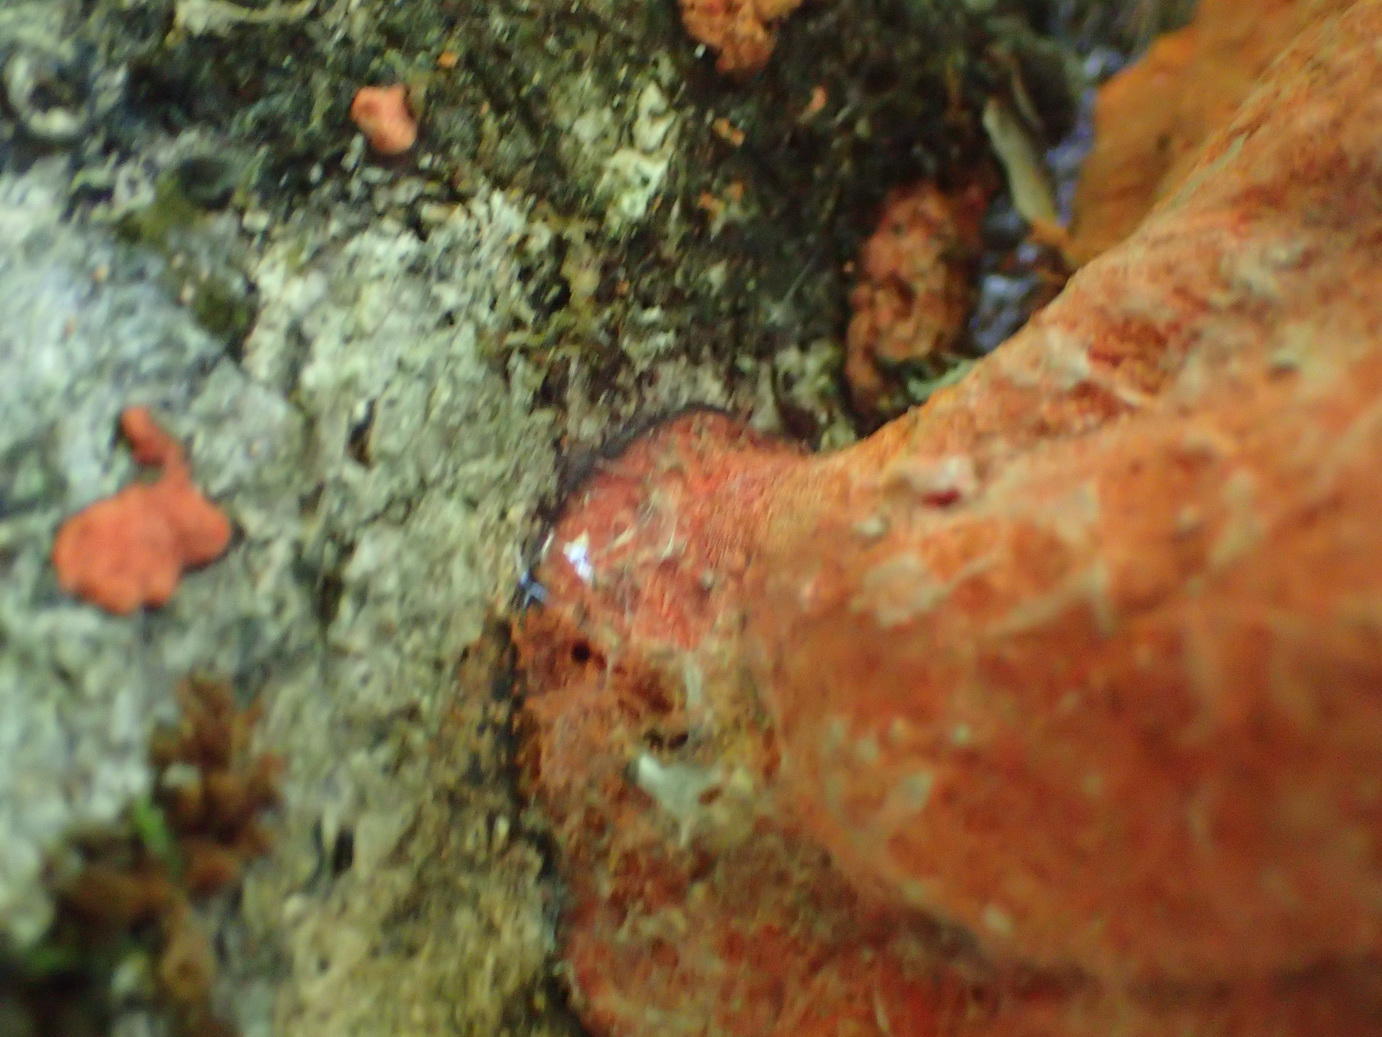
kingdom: Fungi
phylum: Basidiomycota
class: Agaricomycetes
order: Polyporales
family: Polyporaceae
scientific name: Polyporaceae
